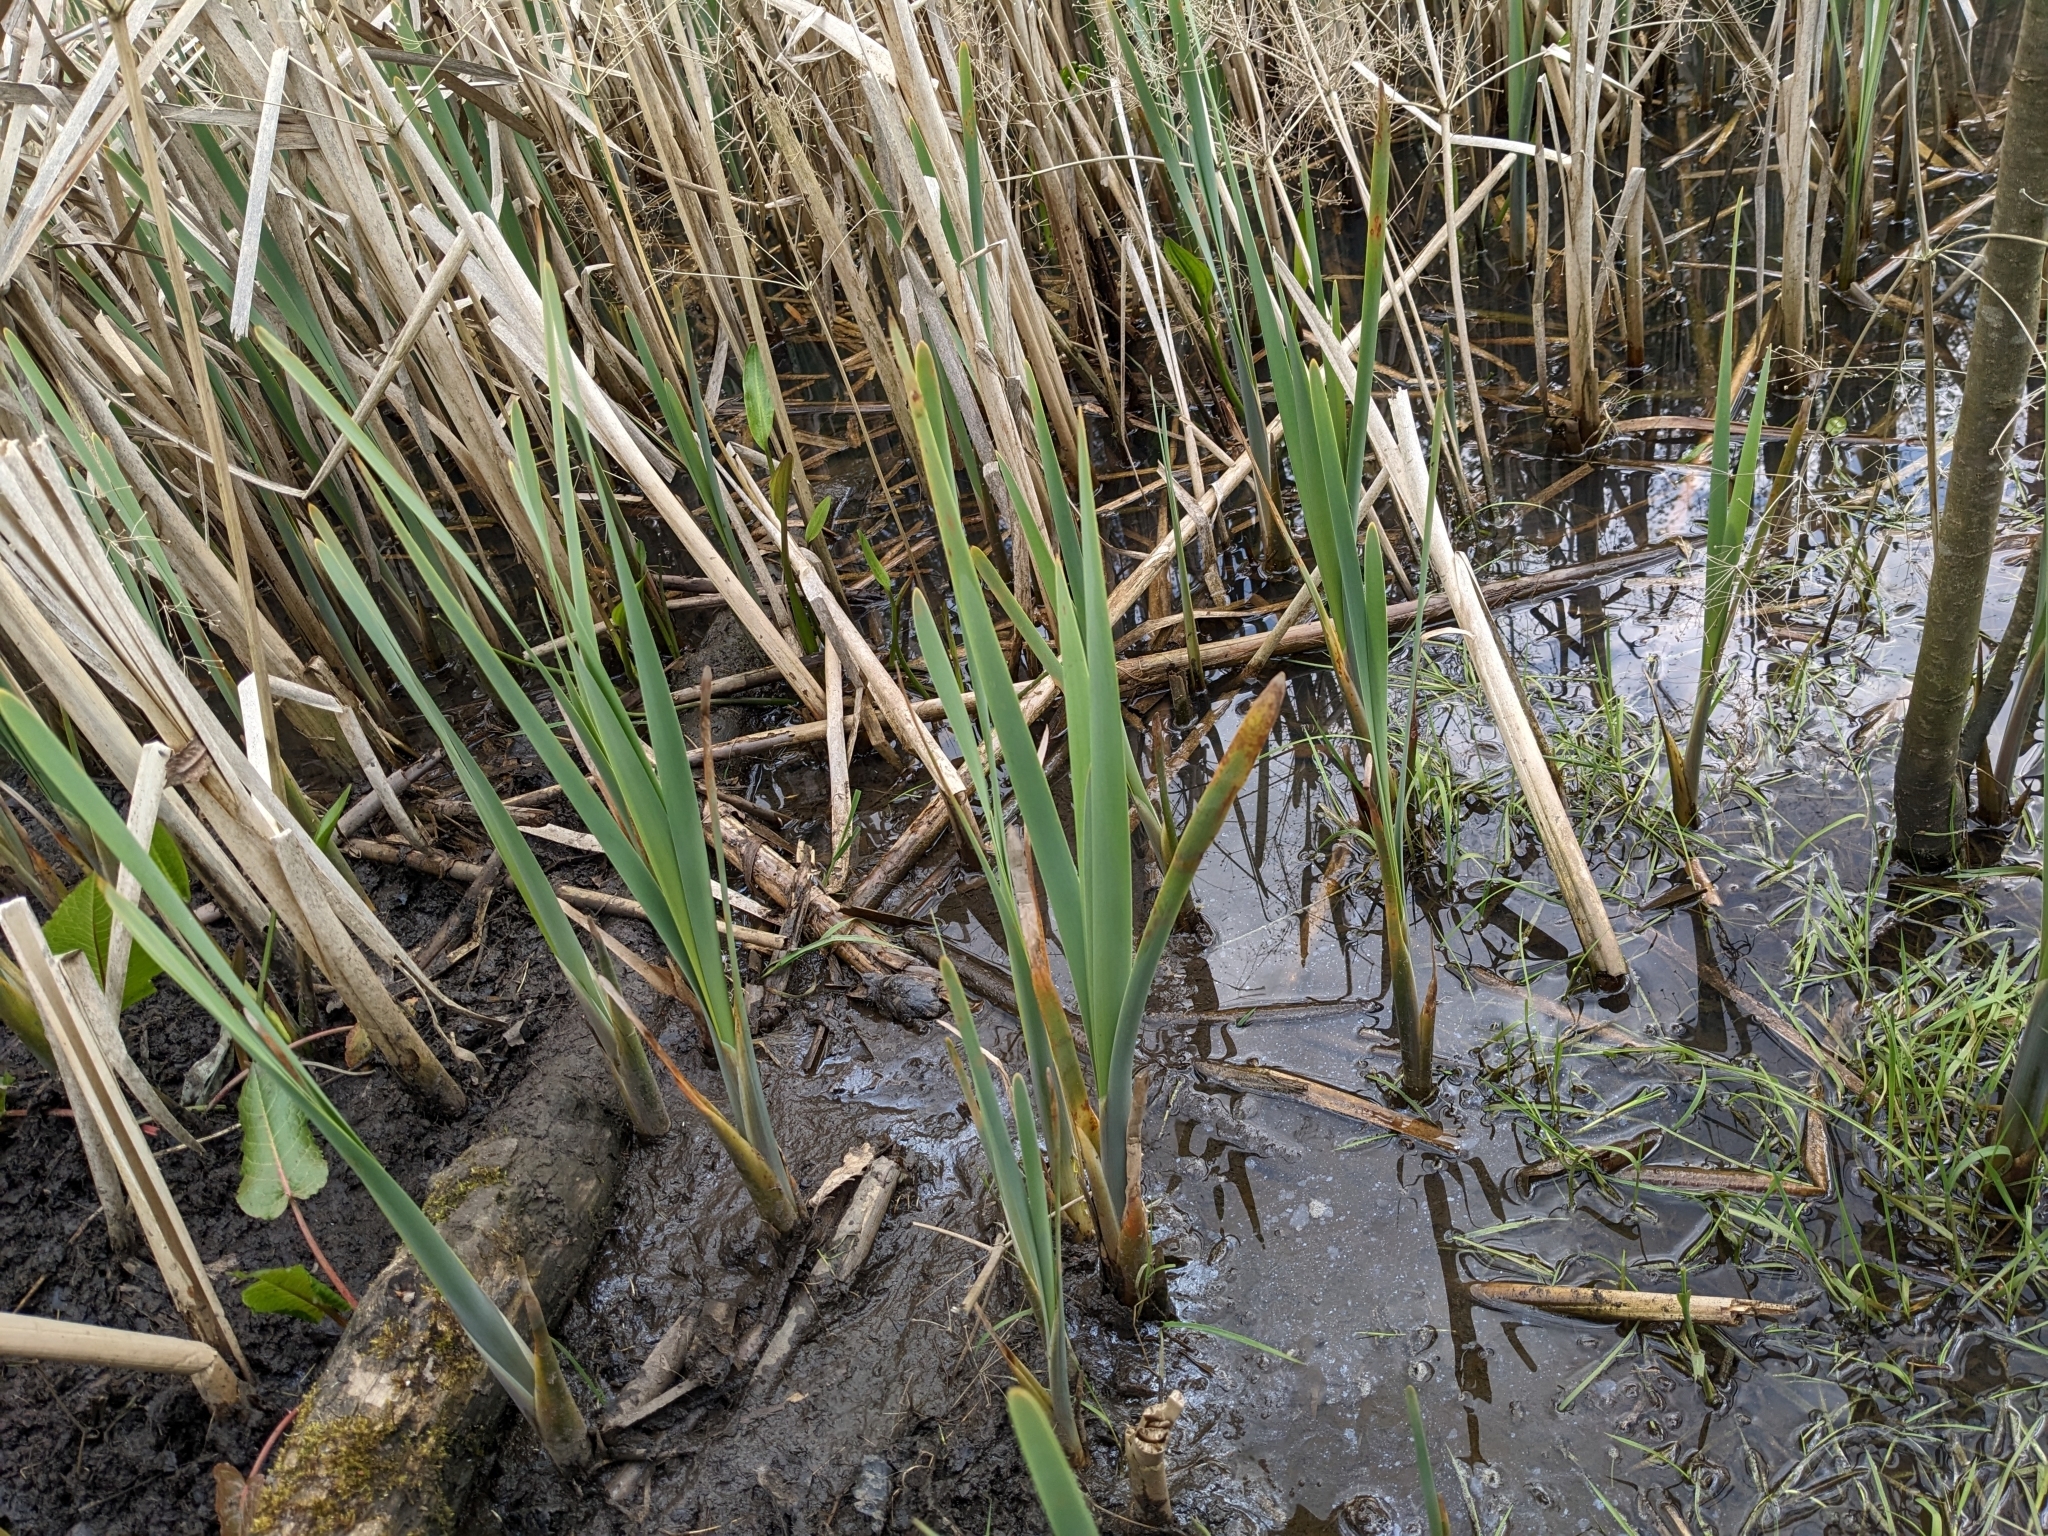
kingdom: Plantae
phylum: Tracheophyta
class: Liliopsida
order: Poales
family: Typhaceae
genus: Typha
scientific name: Typha latifolia
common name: Broadleaf cattail
